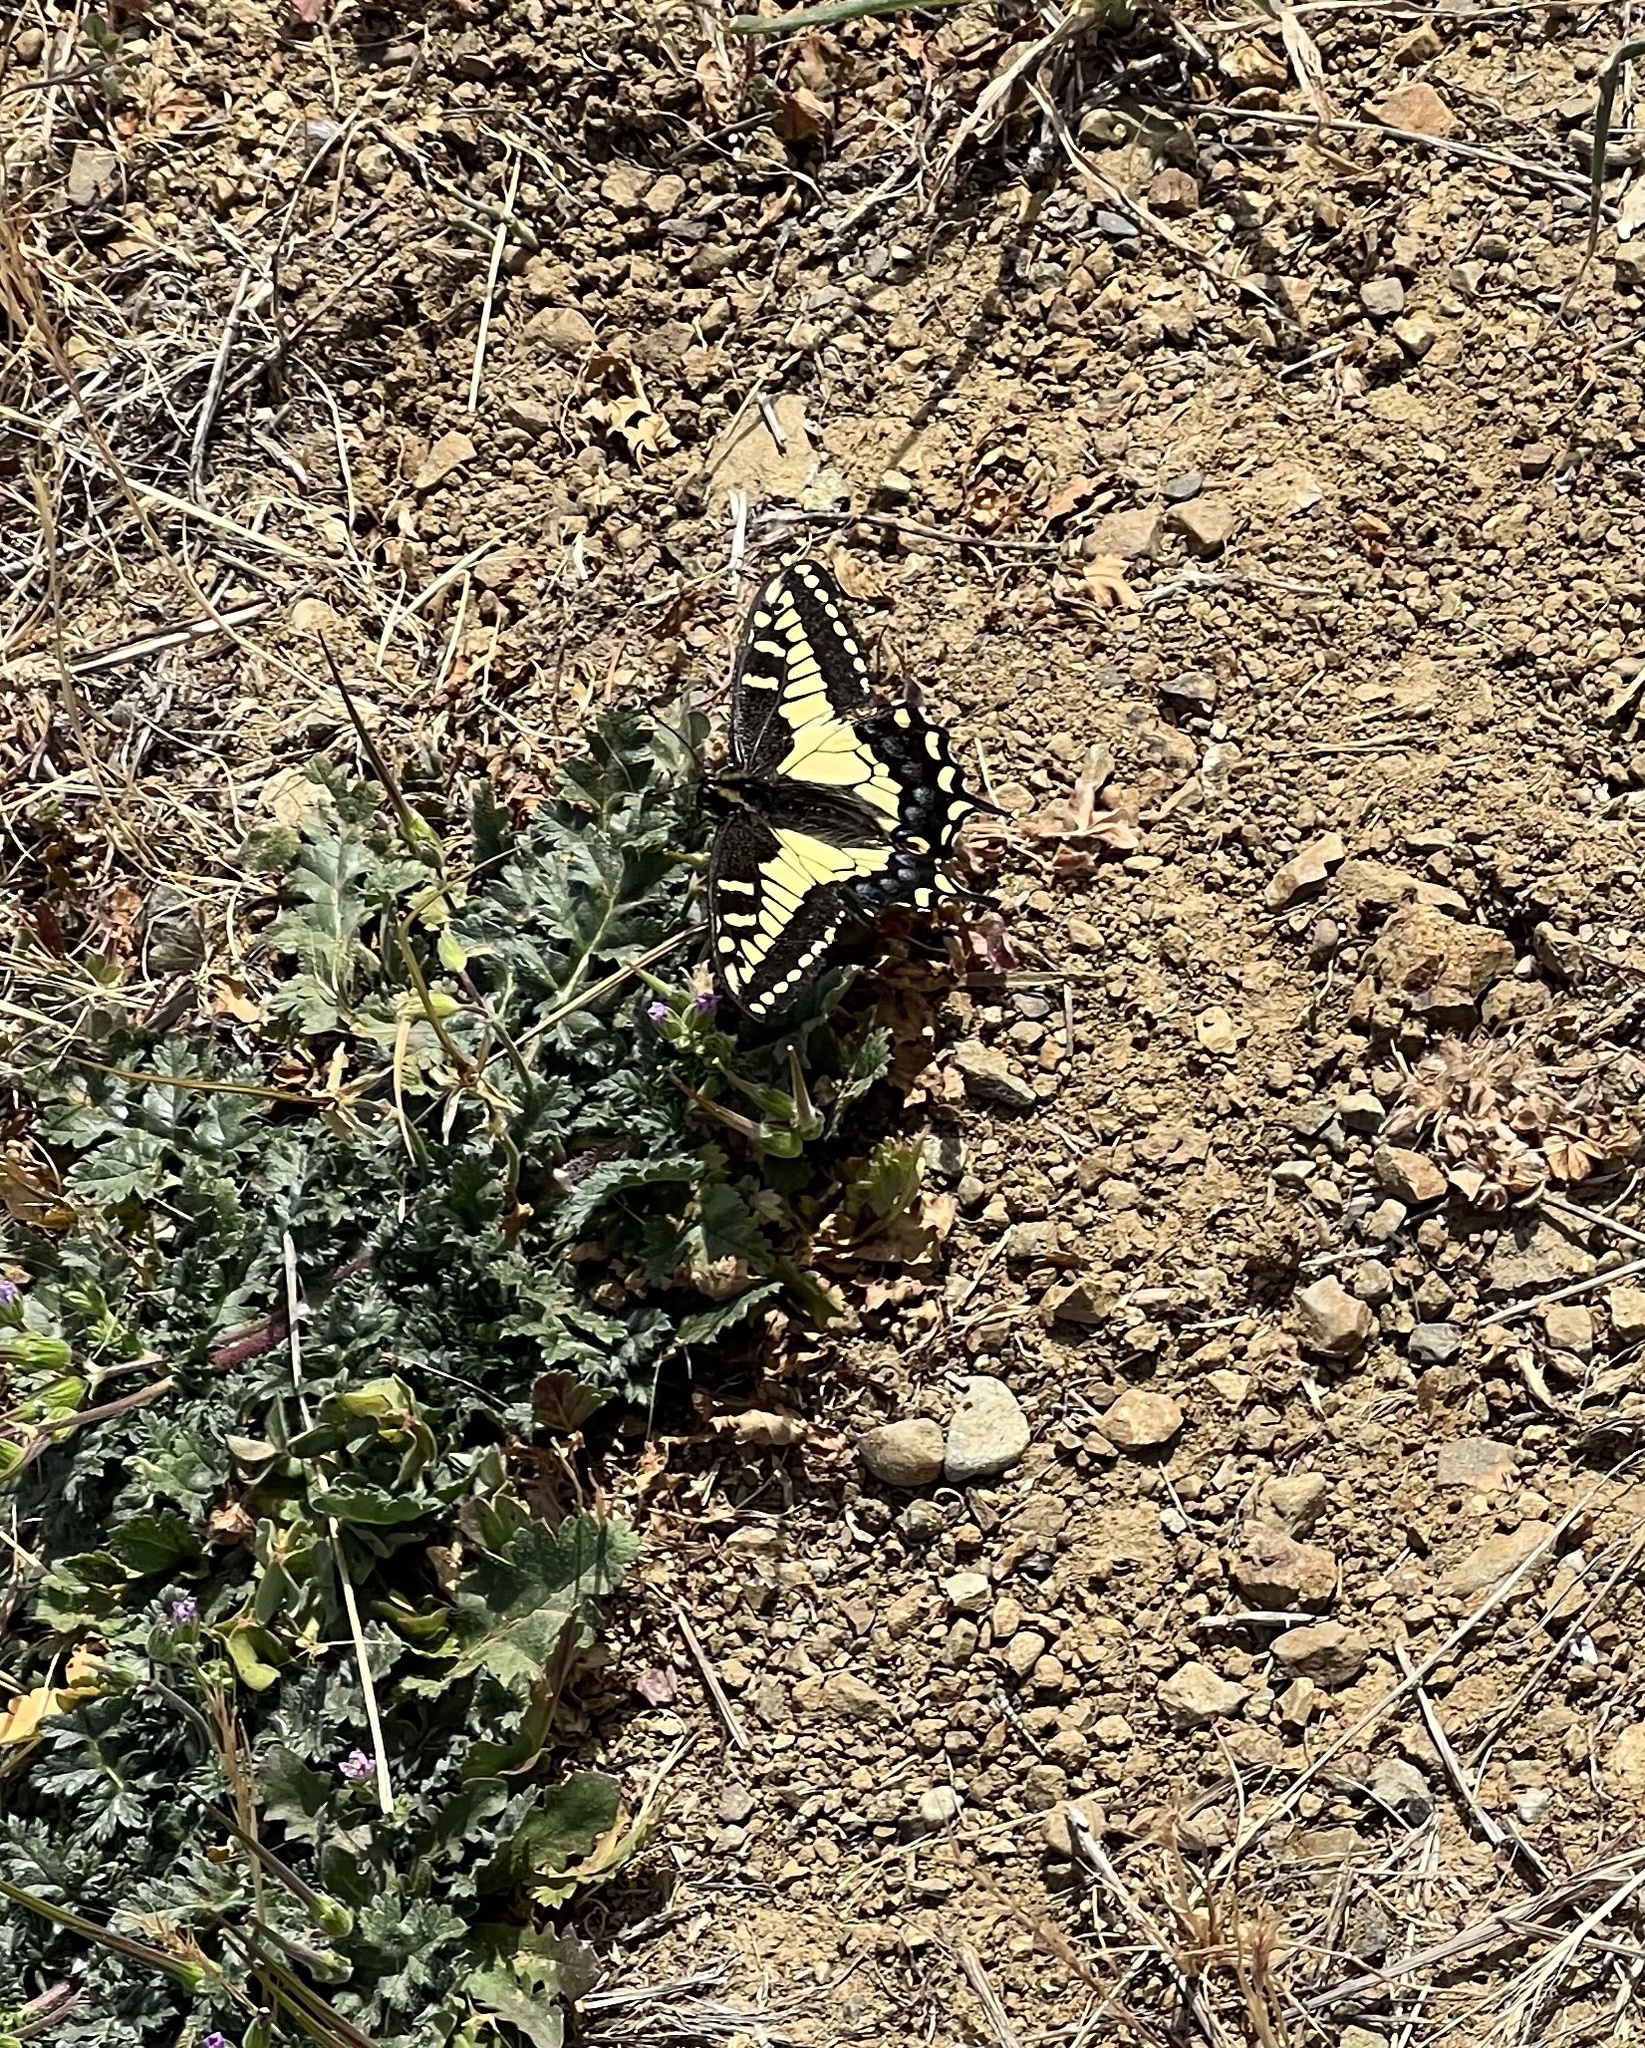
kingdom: Animalia
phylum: Arthropoda
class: Insecta
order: Lepidoptera
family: Papilionidae
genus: Papilio
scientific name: Papilio zelicaon
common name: Anise swallowtail
